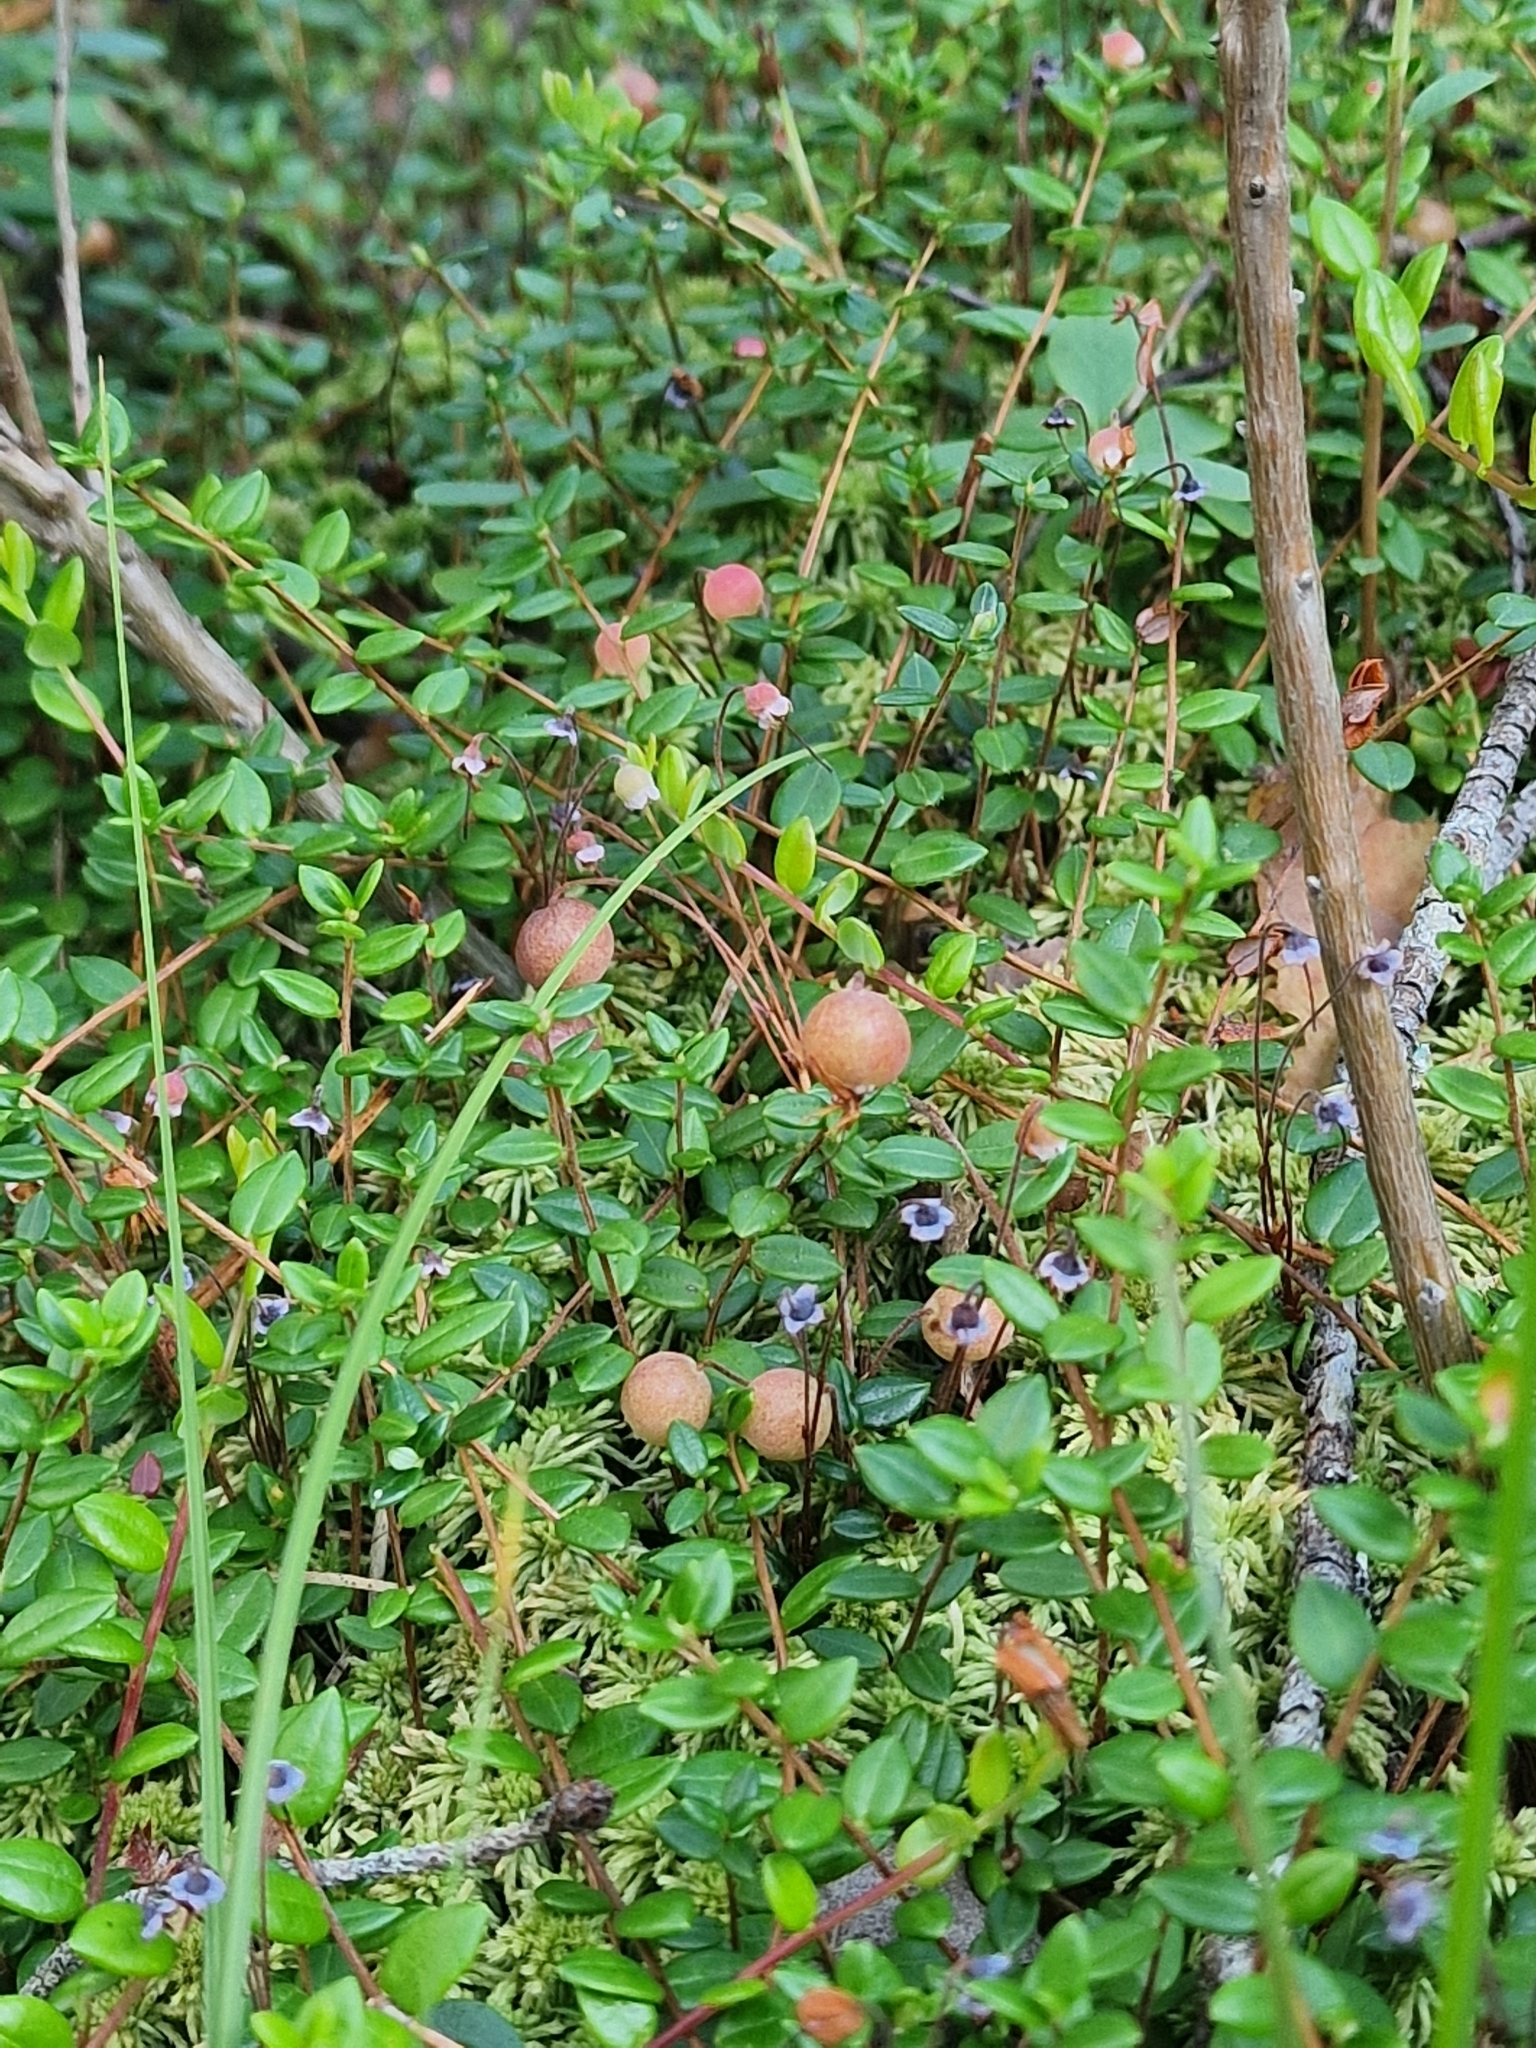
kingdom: Plantae
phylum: Tracheophyta
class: Magnoliopsida
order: Ericales
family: Ericaceae
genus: Vaccinium
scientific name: Vaccinium oxycoccos
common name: Cranberry
